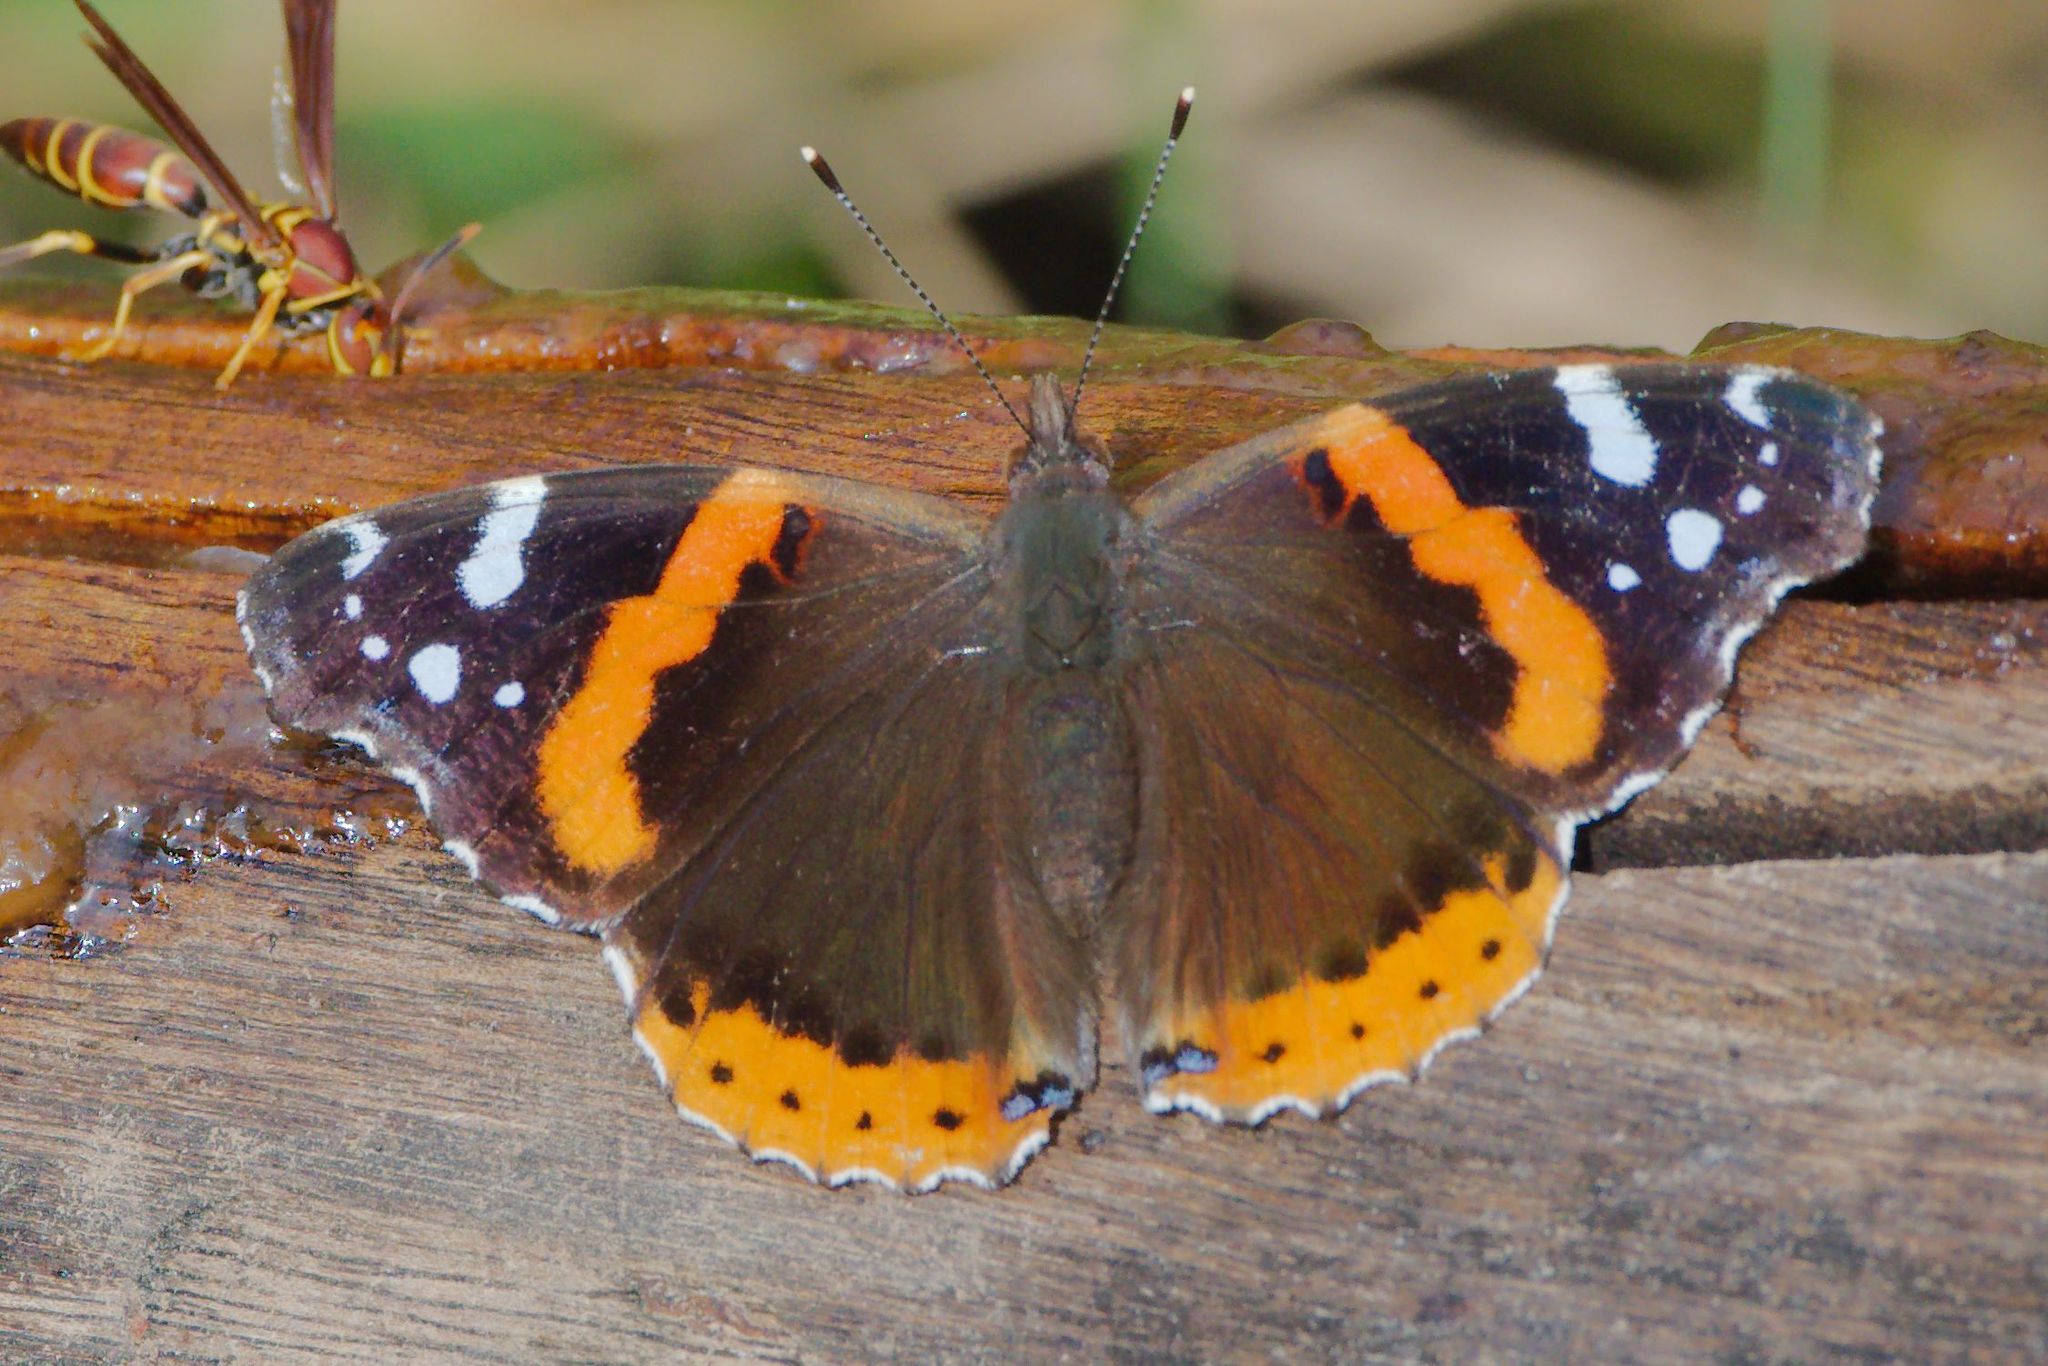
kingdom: Animalia
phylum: Arthropoda
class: Insecta
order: Lepidoptera
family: Nymphalidae
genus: Vanessa
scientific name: Vanessa atalanta
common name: Red admiral
